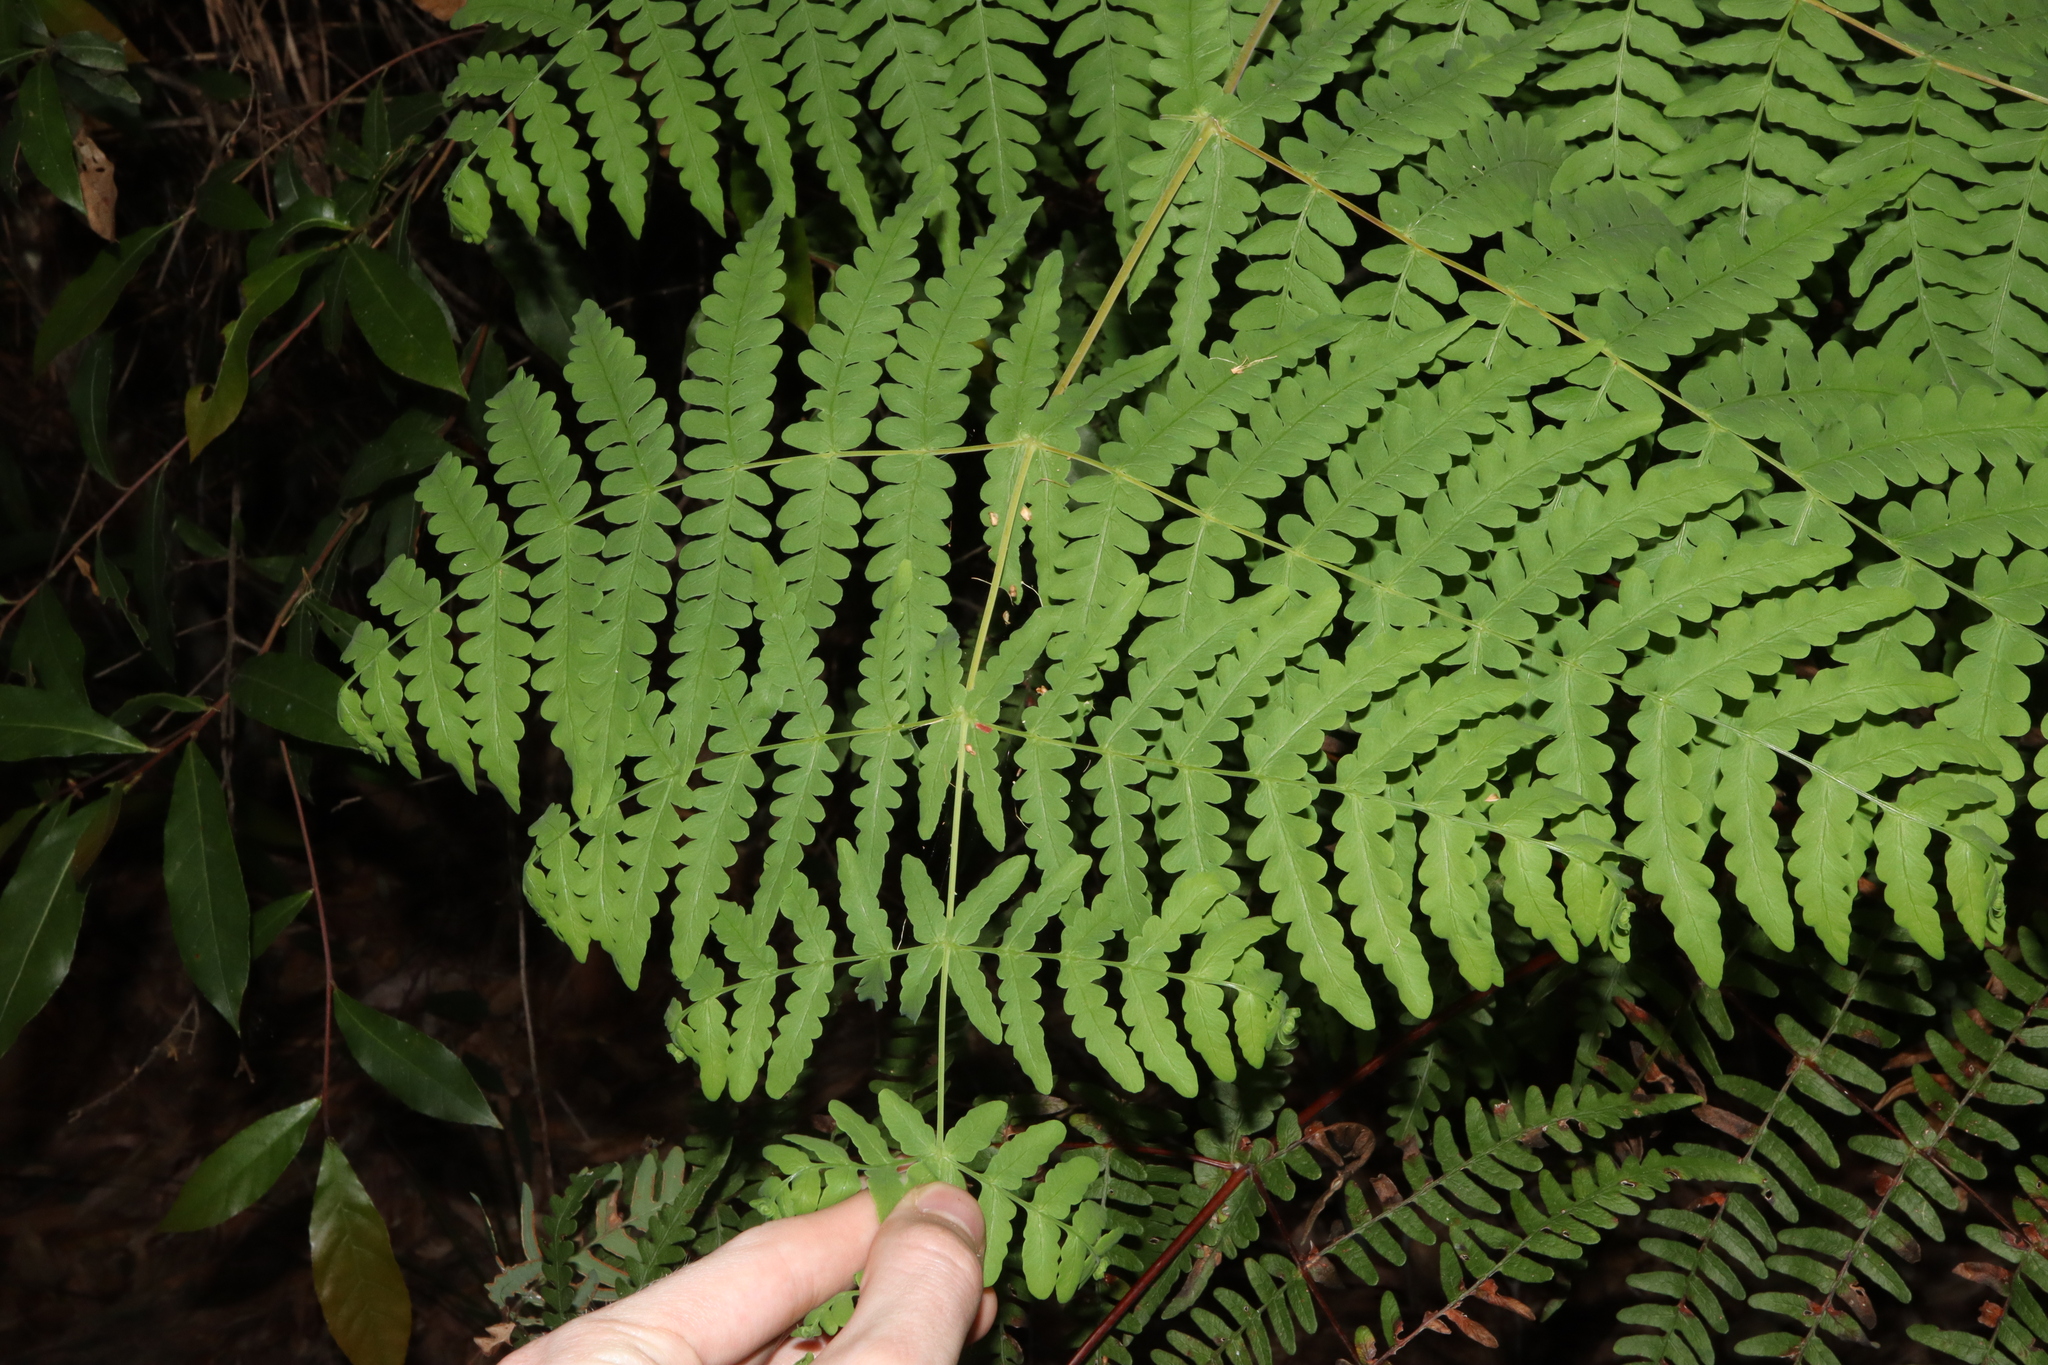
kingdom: Plantae
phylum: Tracheophyta
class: Polypodiopsida
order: Polypodiales
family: Dennstaedtiaceae
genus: Histiopteris
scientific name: Histiopteris incisa
